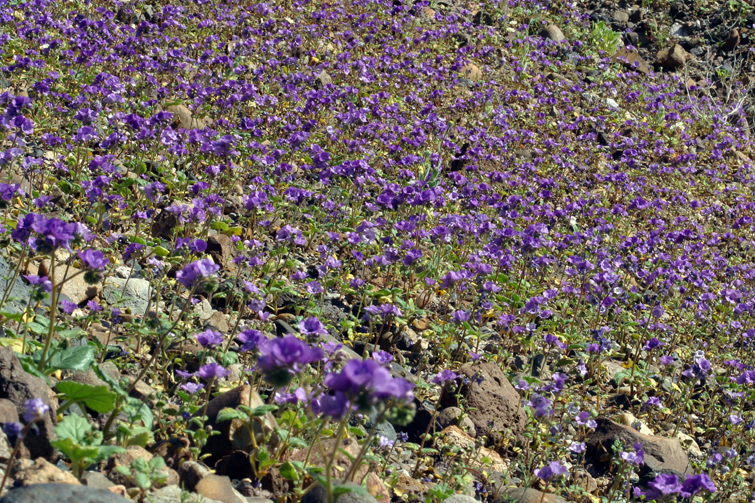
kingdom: Plantae
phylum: Tracheophyta
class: Magnoliopsida
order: Boraginales
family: Hydrophyllaceae
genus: Phacelia
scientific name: Phacelia calthifolia
